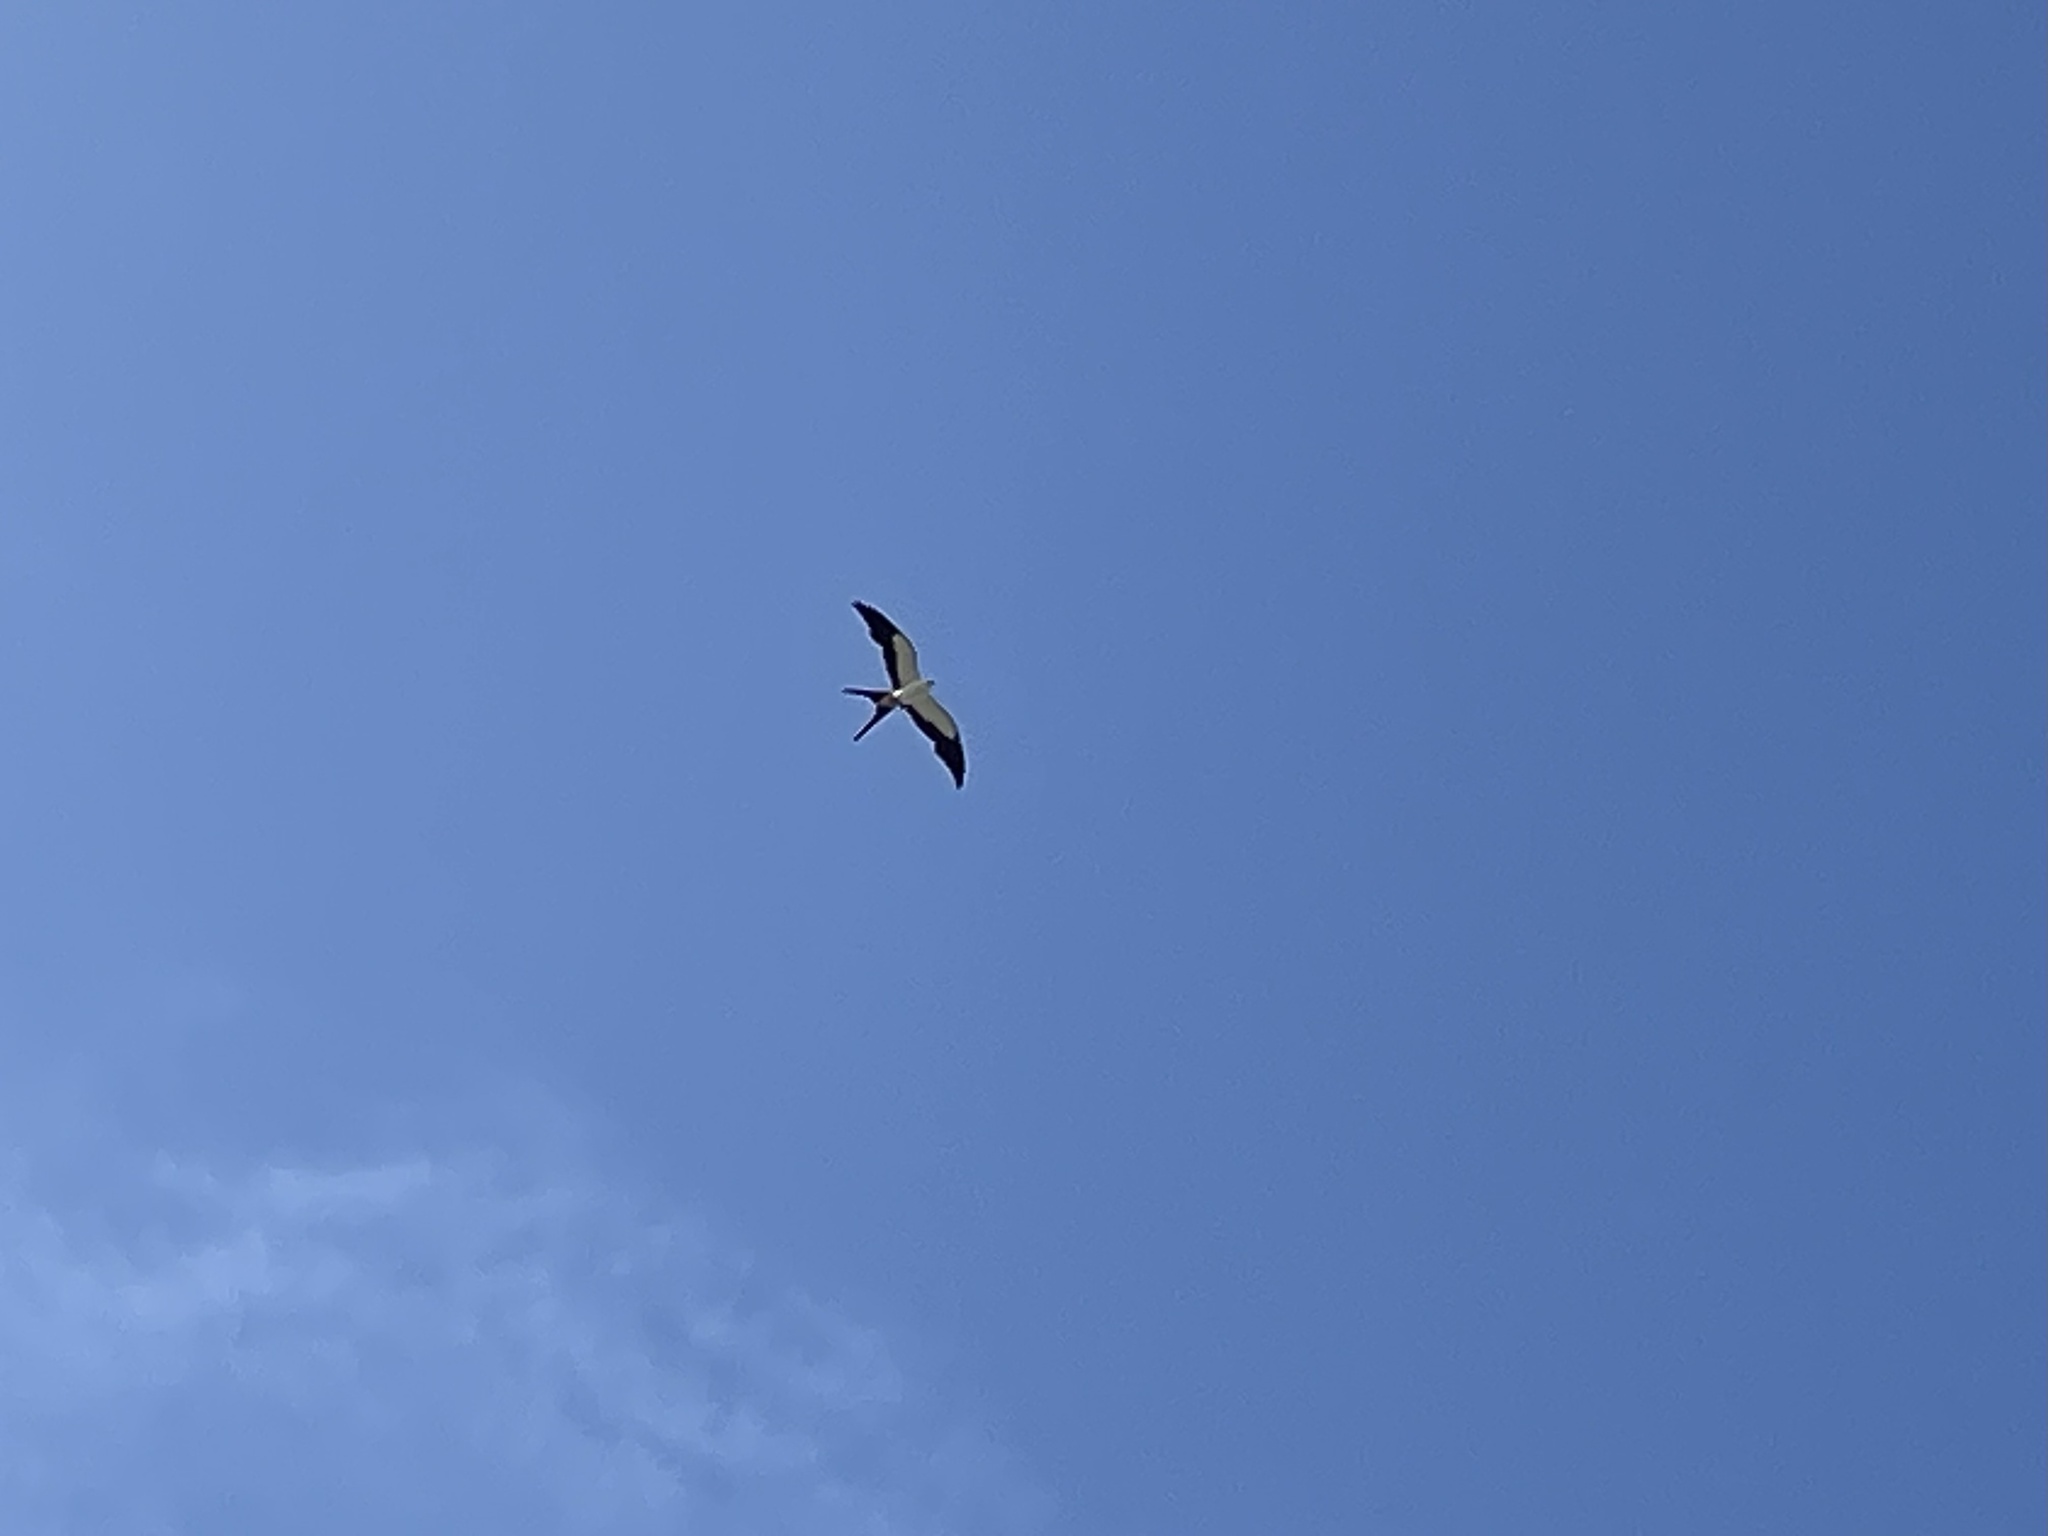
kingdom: Animalia
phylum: Chordata
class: Aves
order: Accipitriformes
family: Accipitridae
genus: Elanoides
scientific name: Elanoides forficatus
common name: Swallow-tailed kite
